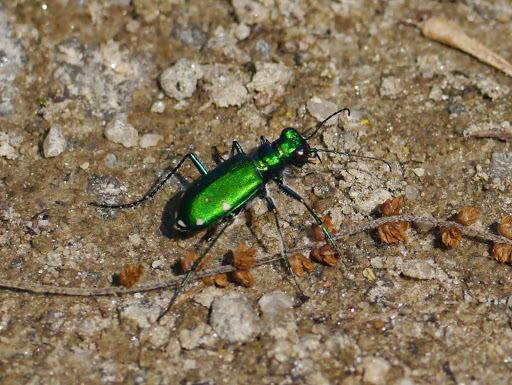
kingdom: Animalia
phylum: Arthropoda
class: Insecta
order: Coleoptera
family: Carabidae
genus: Cicindela
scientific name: Cicindela sexguttata
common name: Six-spotted tiger beetle
